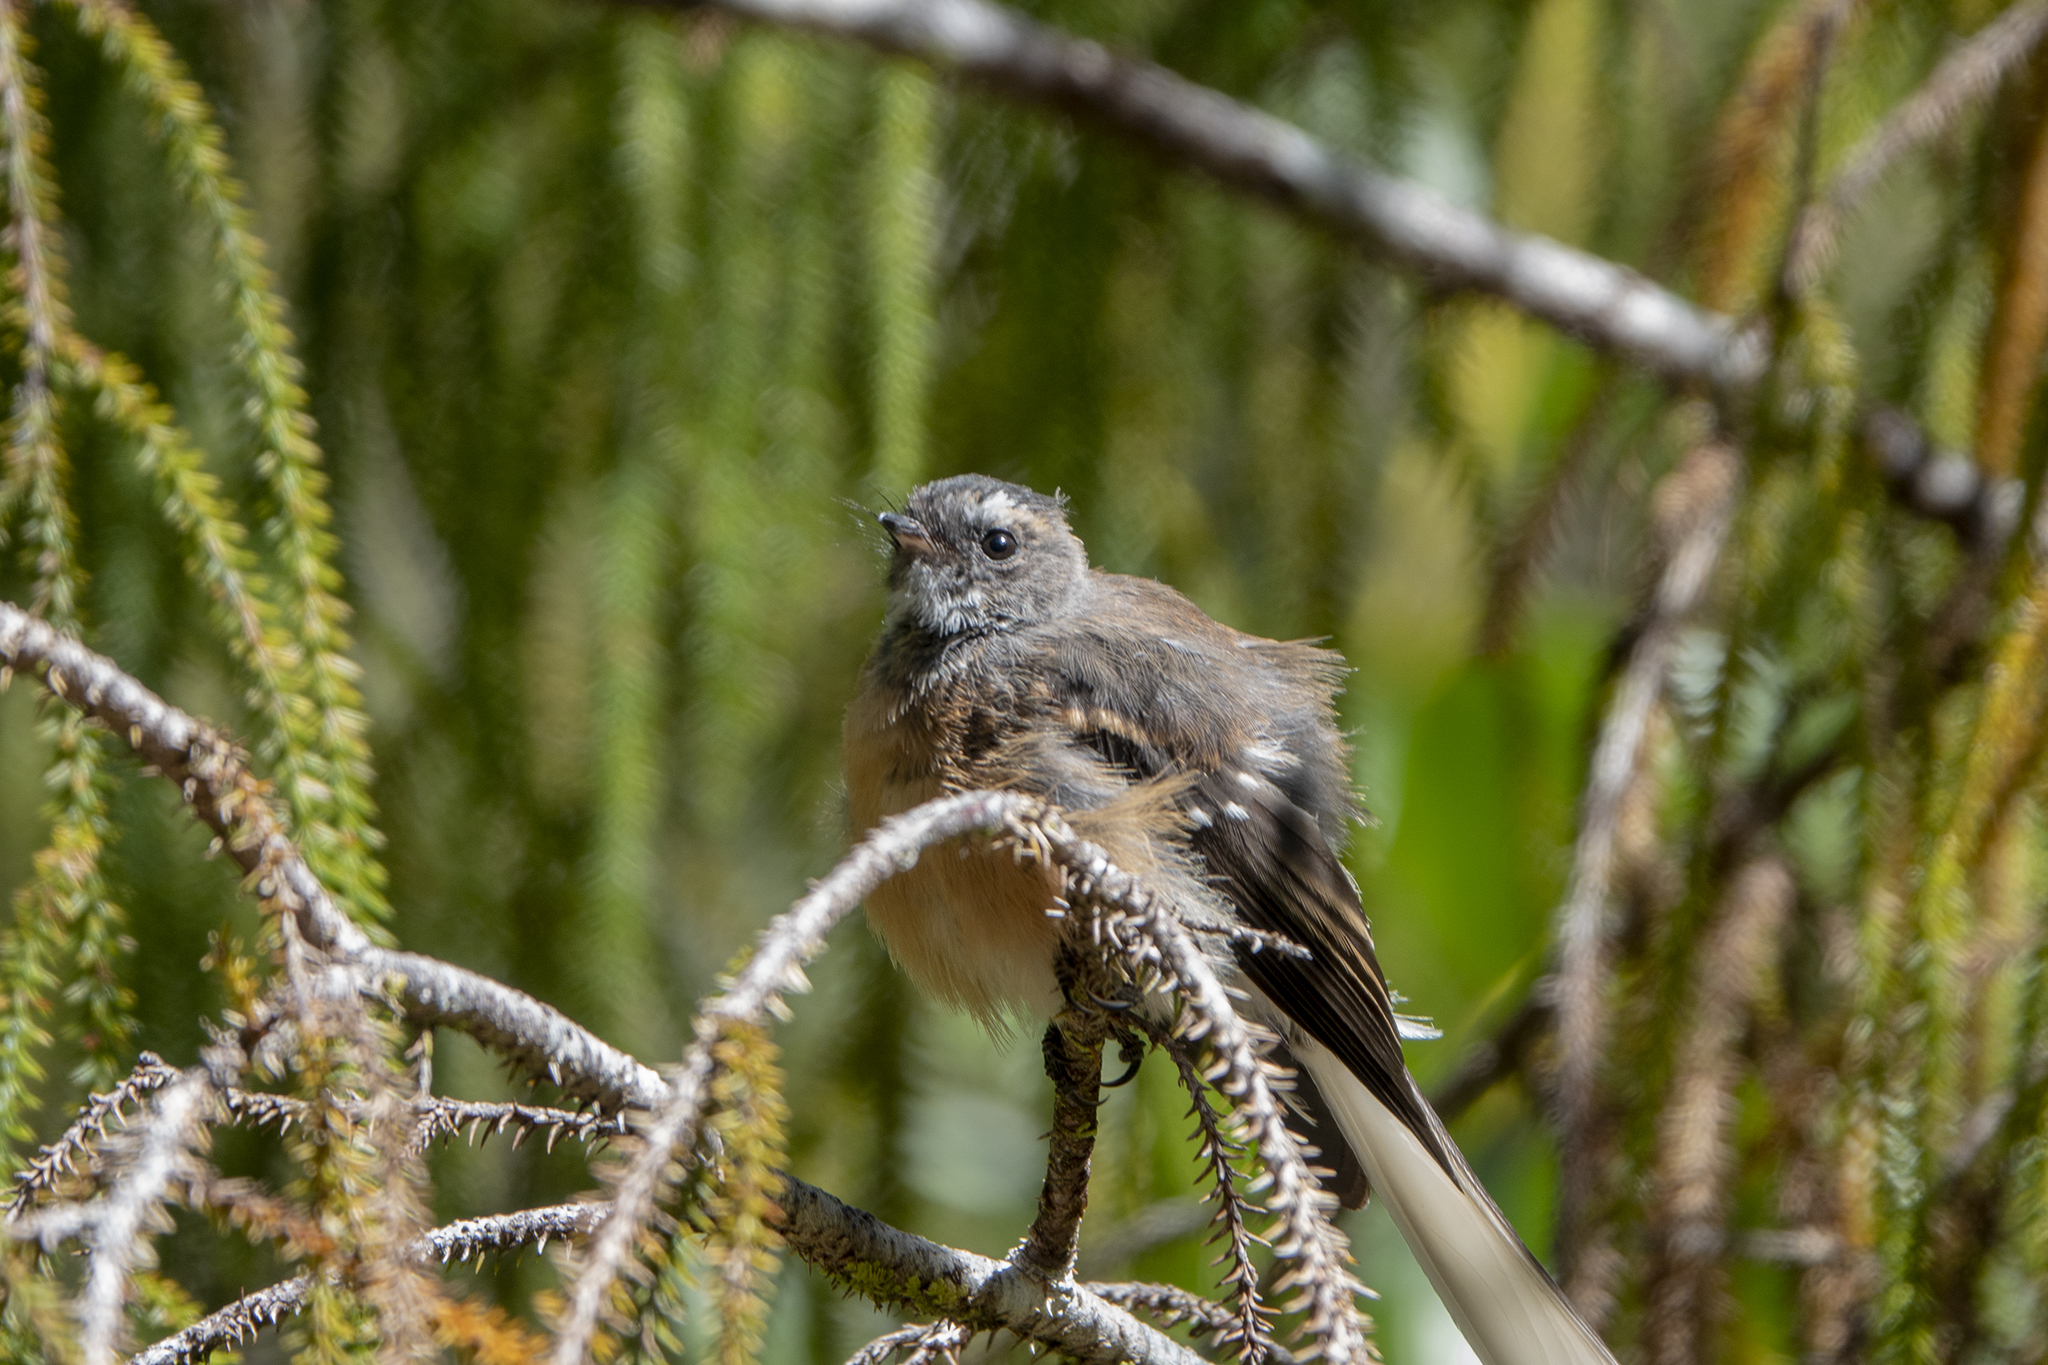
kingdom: Animalia
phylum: Chordata
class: Aves
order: Passeriformes
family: Rhipiduridae
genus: Rhipidura
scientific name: Rhipidura fuliginosa
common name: New zealand fantail
